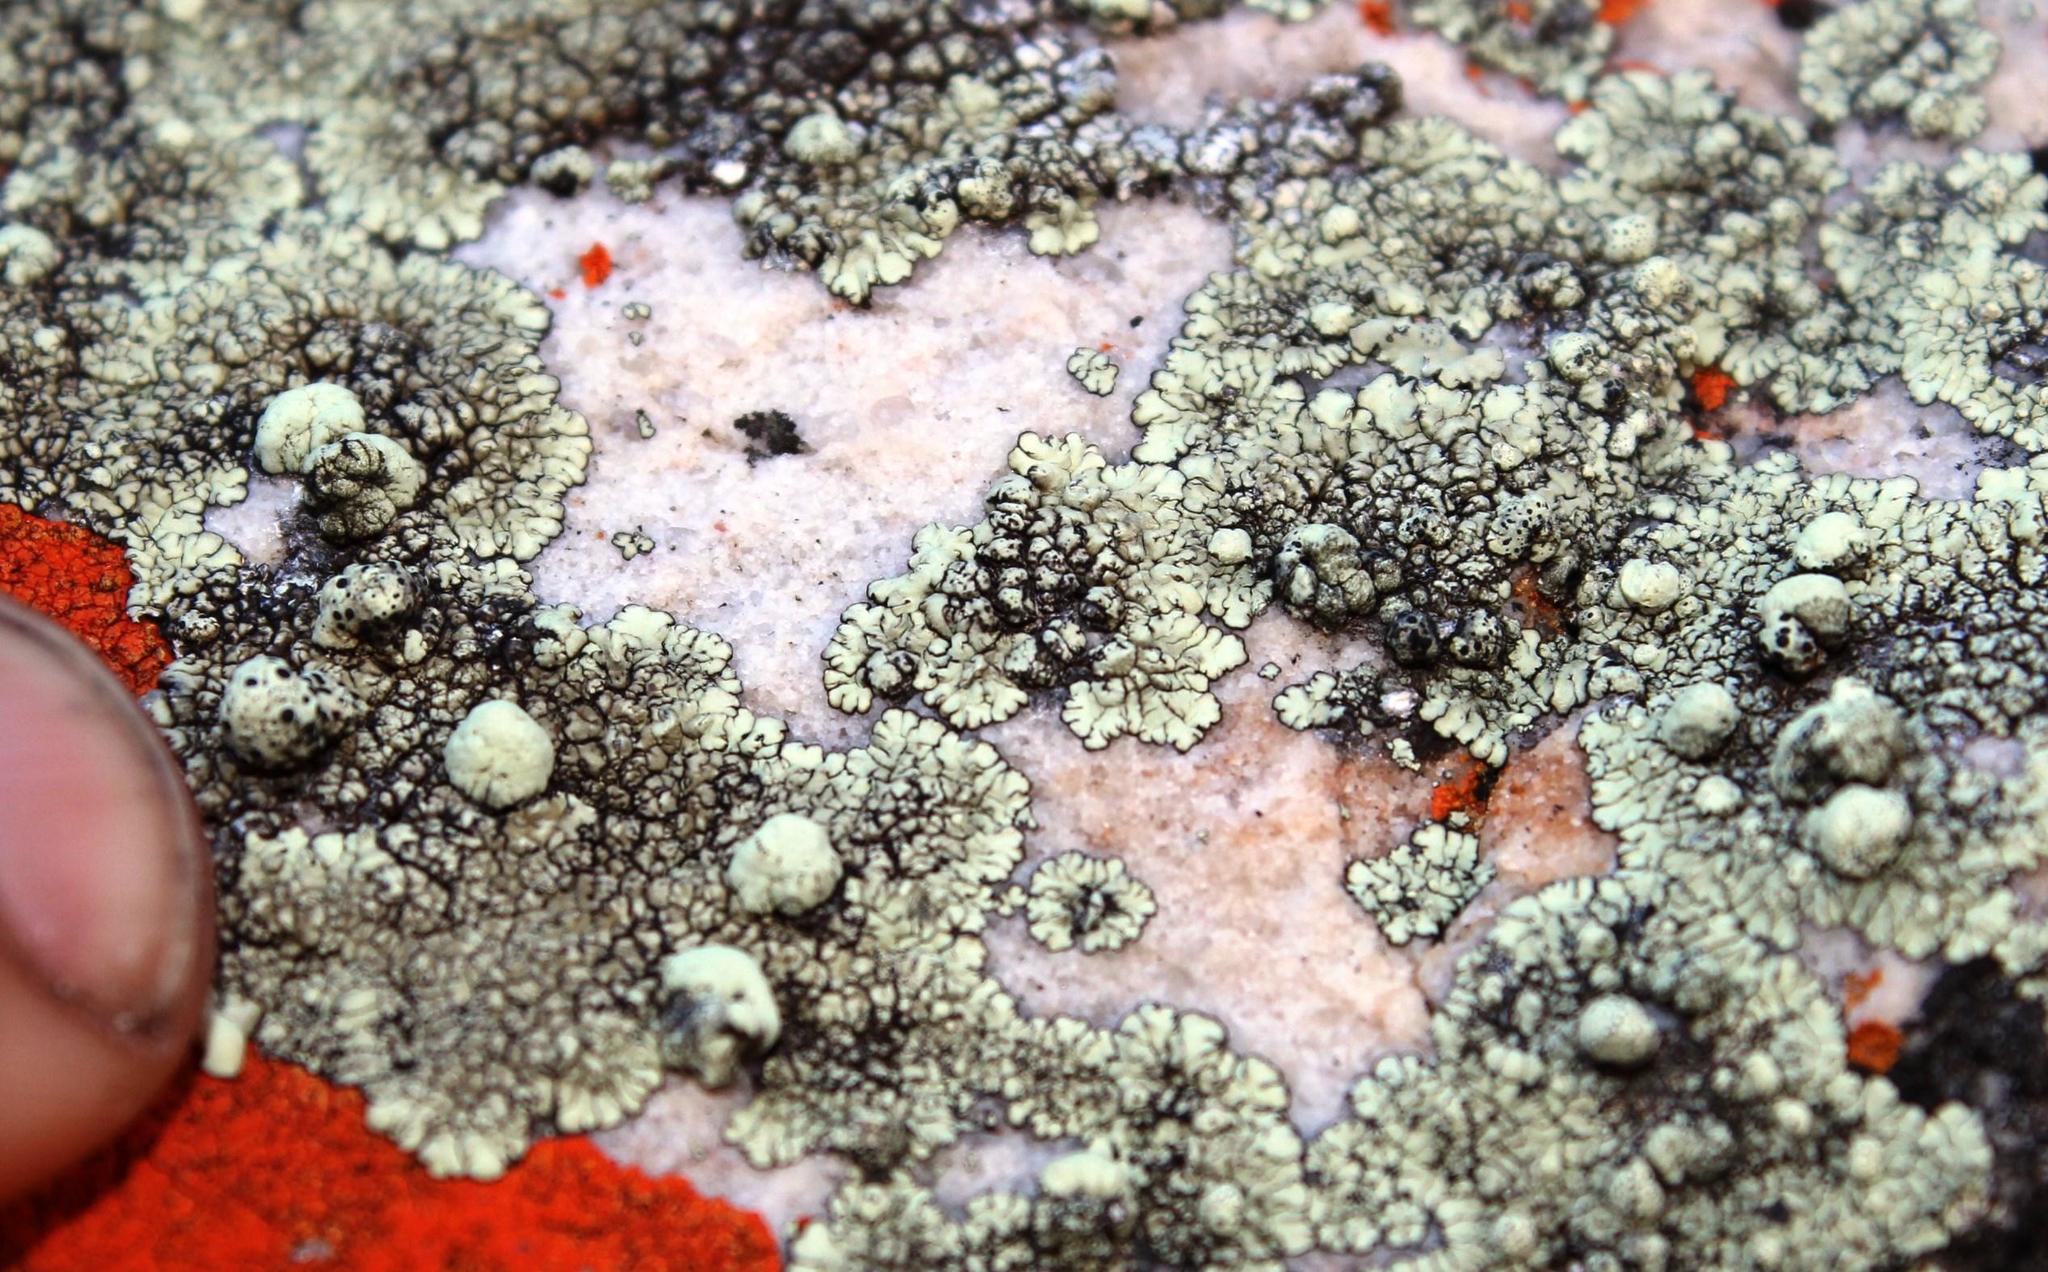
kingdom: Fungi
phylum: Ascomycota
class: Lecanoromycetes
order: Lecanorales
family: Parmeliaceae
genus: Punctelia
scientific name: Punctelia oxyspora
